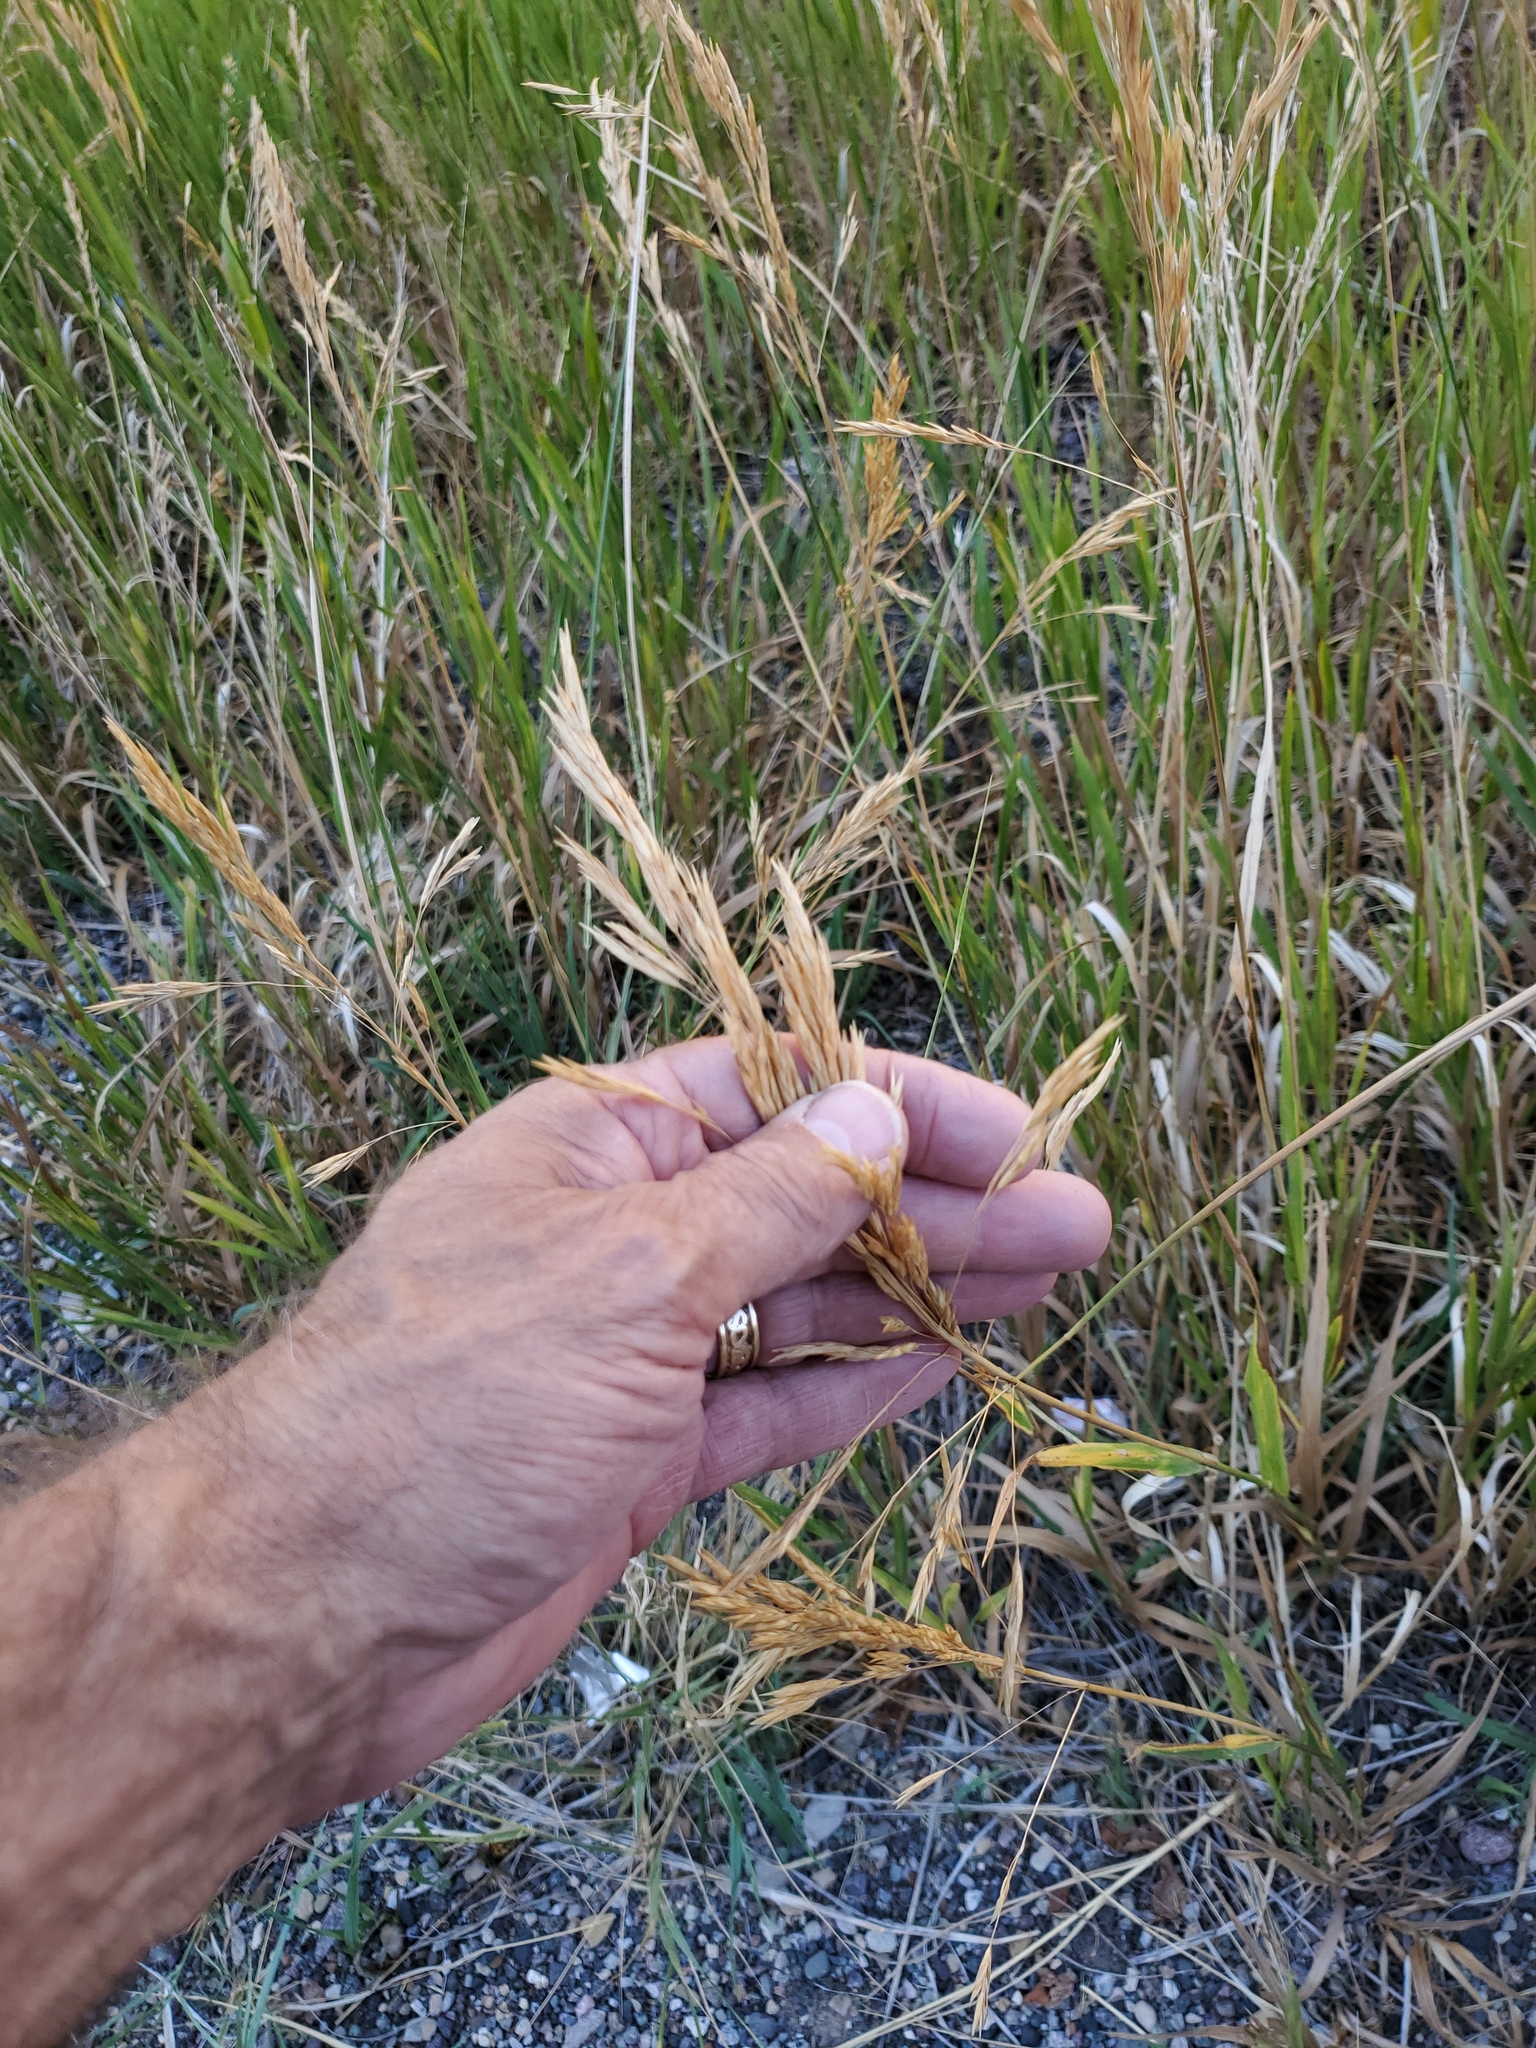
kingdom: Plantae
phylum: Tracheophyta
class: Liliopsida
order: Poales
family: Poaceae
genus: Bromus
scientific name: Bromus inermis
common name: Smooth brome
